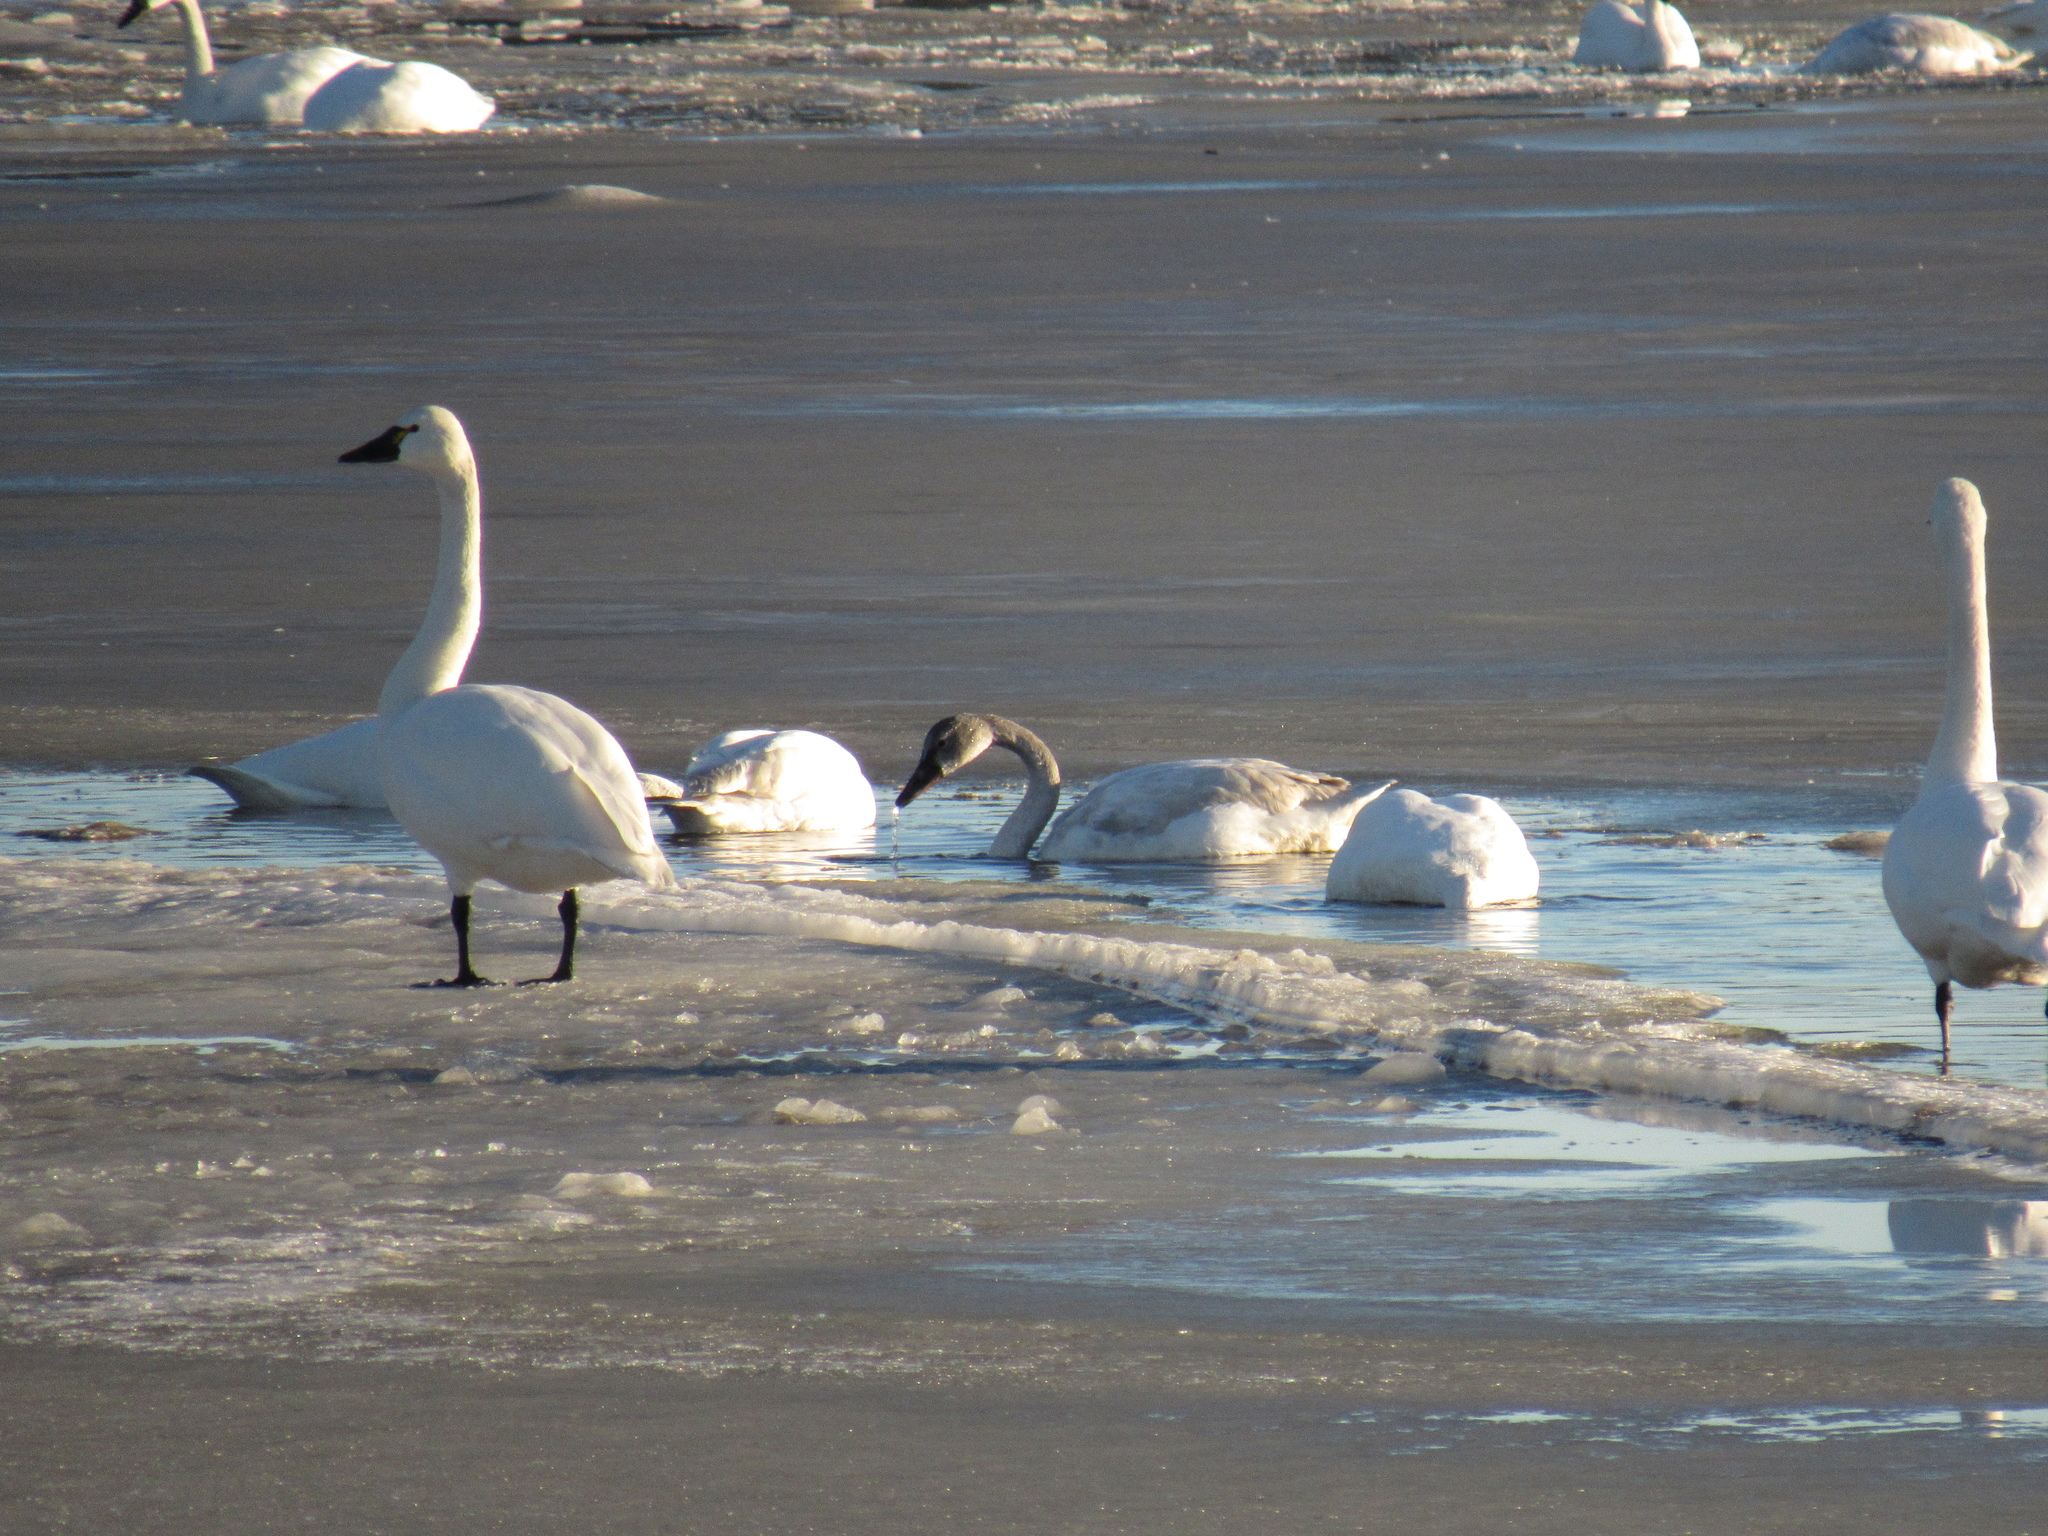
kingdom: Animalia
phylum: Chordata
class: Aves
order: Anseriformes
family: Anatidae
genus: Cygnus
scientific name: Cygnus columbianus
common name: Tundra swan
